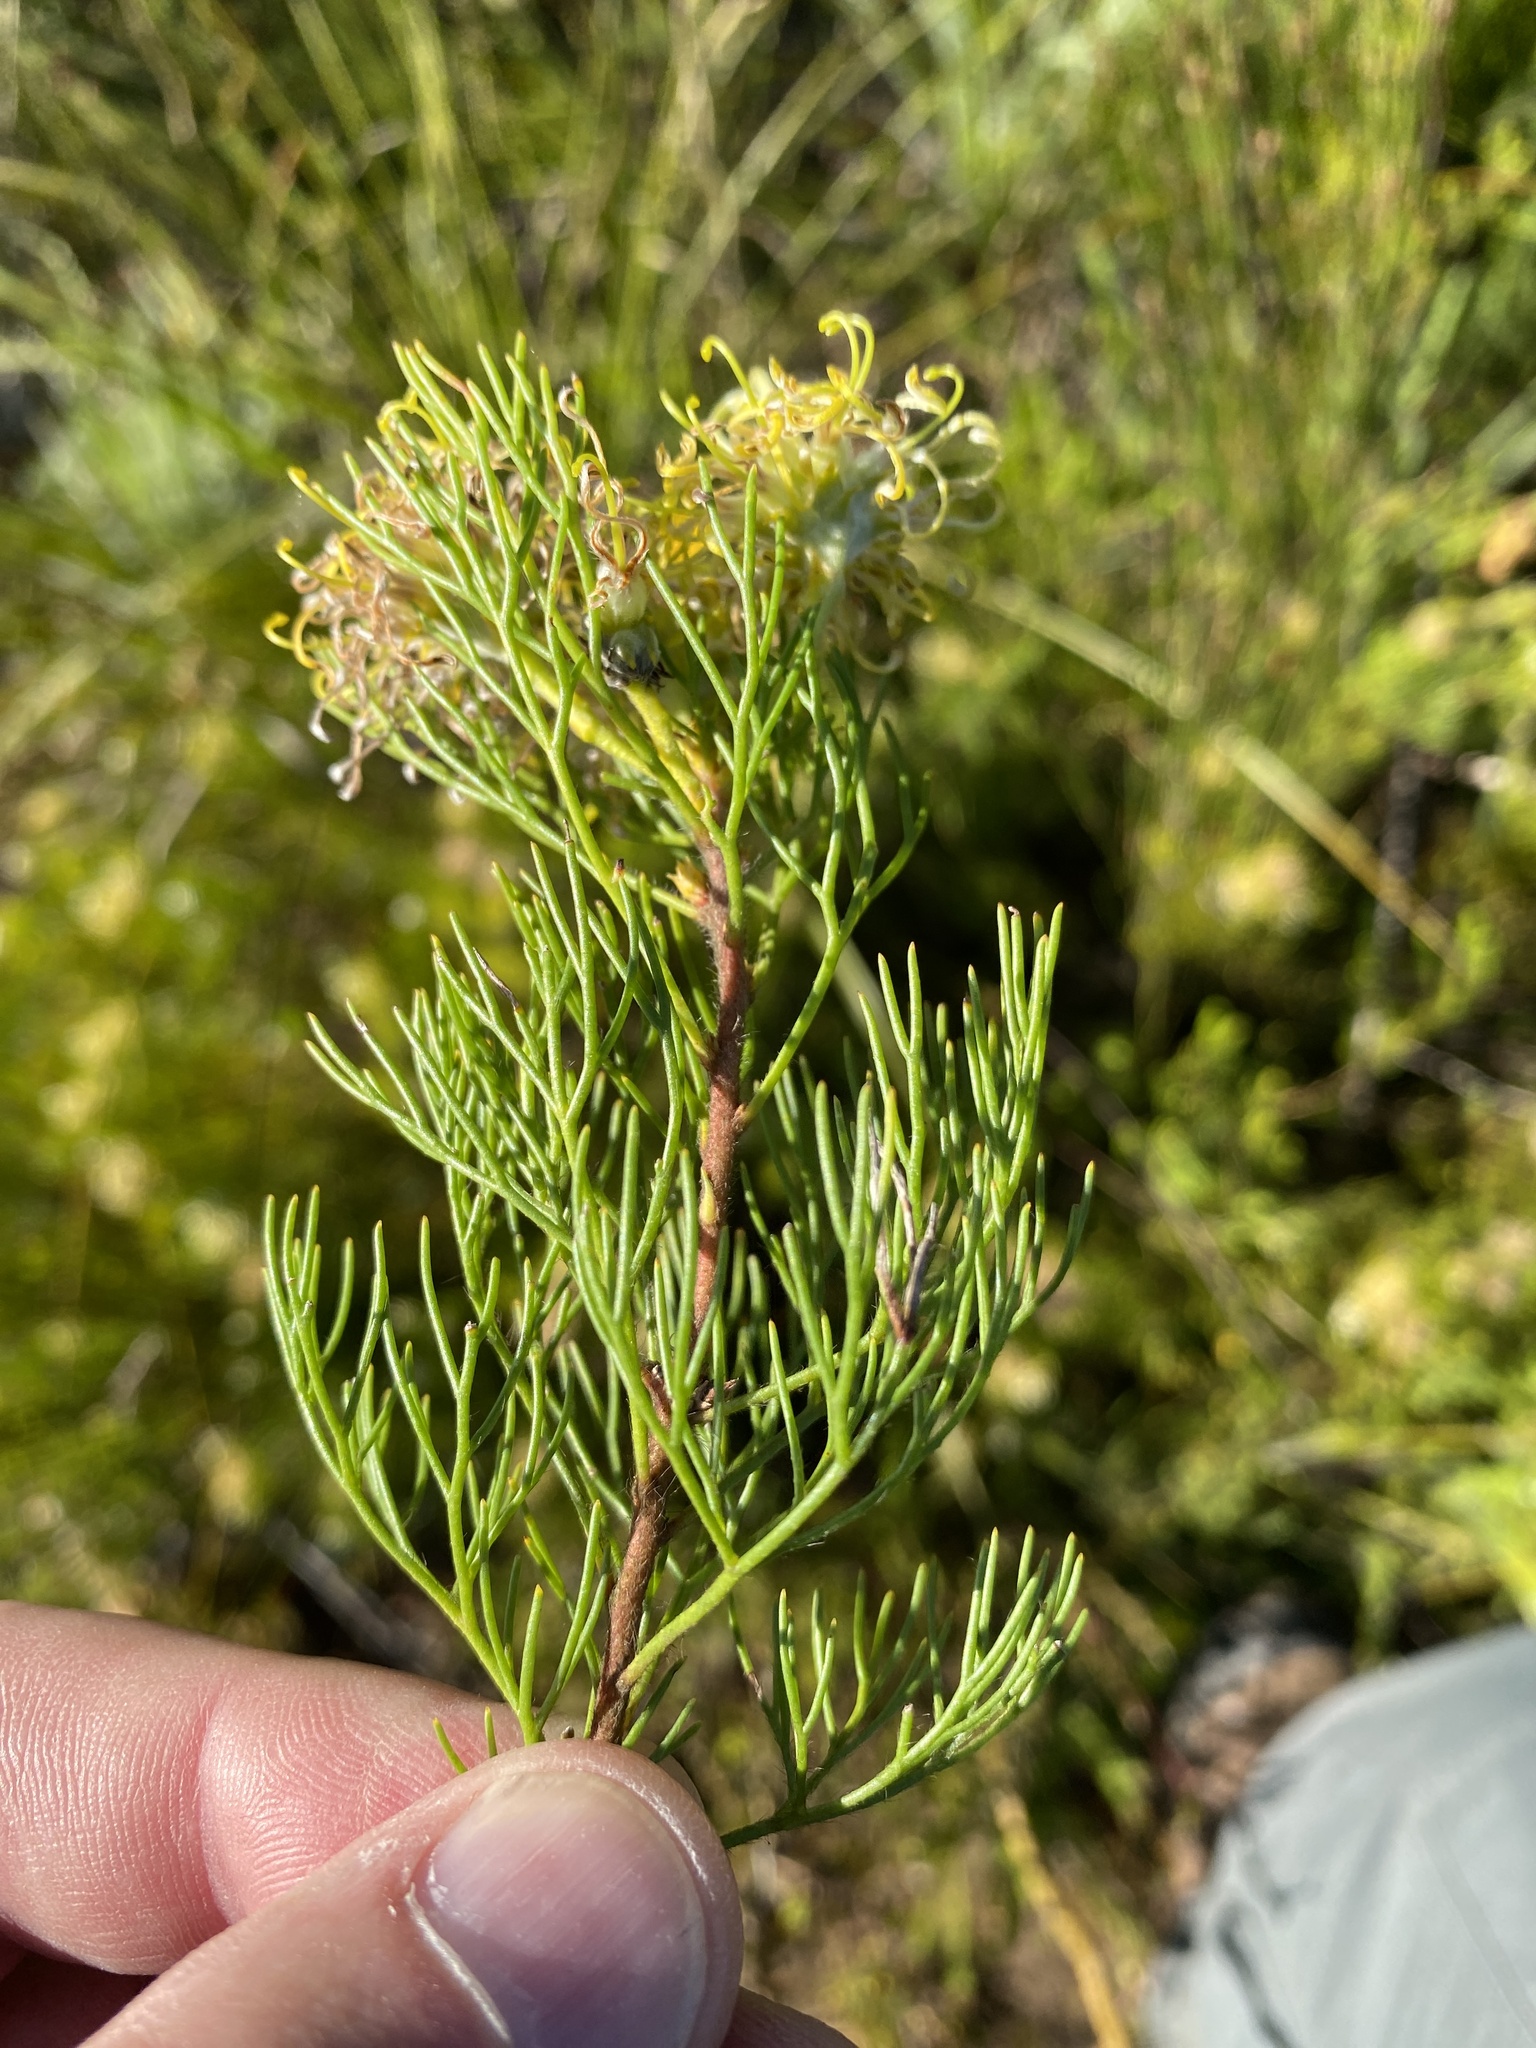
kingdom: Plantae
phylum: Tracheophyta
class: Magnoliopsida
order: Proteales
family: Proteaceae
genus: Serruria
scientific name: Serruria
